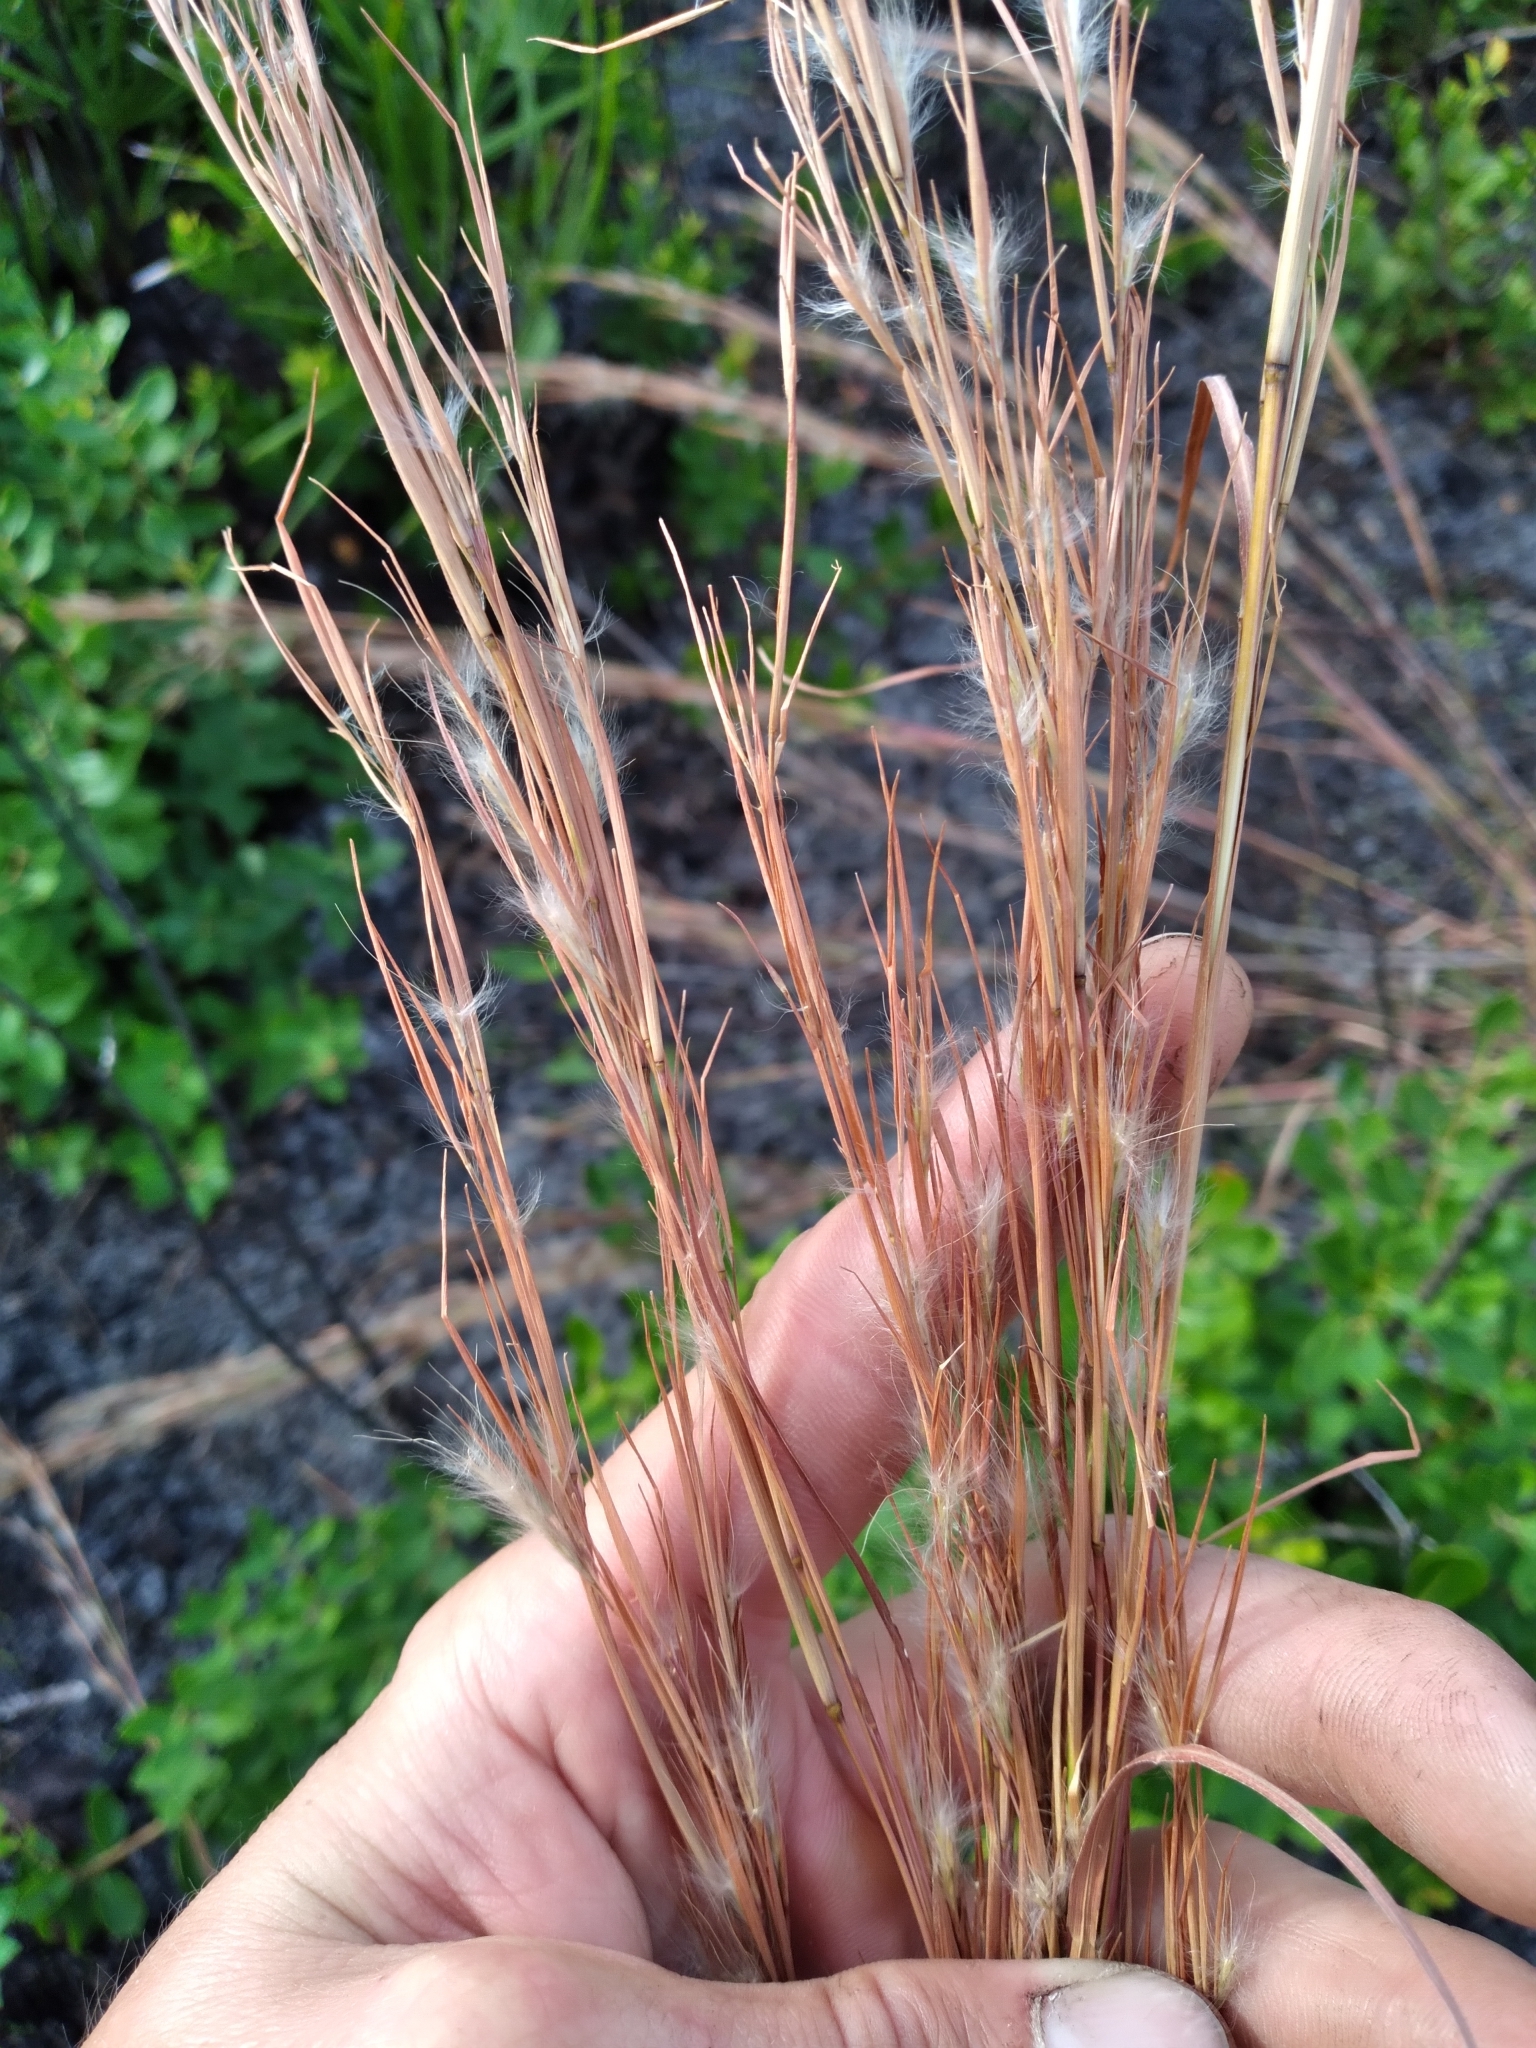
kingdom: Plantae
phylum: Tracheophyta
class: Liliopsida
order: Poales
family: Poaceae
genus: Andropogon
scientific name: Andropogon tracyi
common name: Tracy's bluestem
